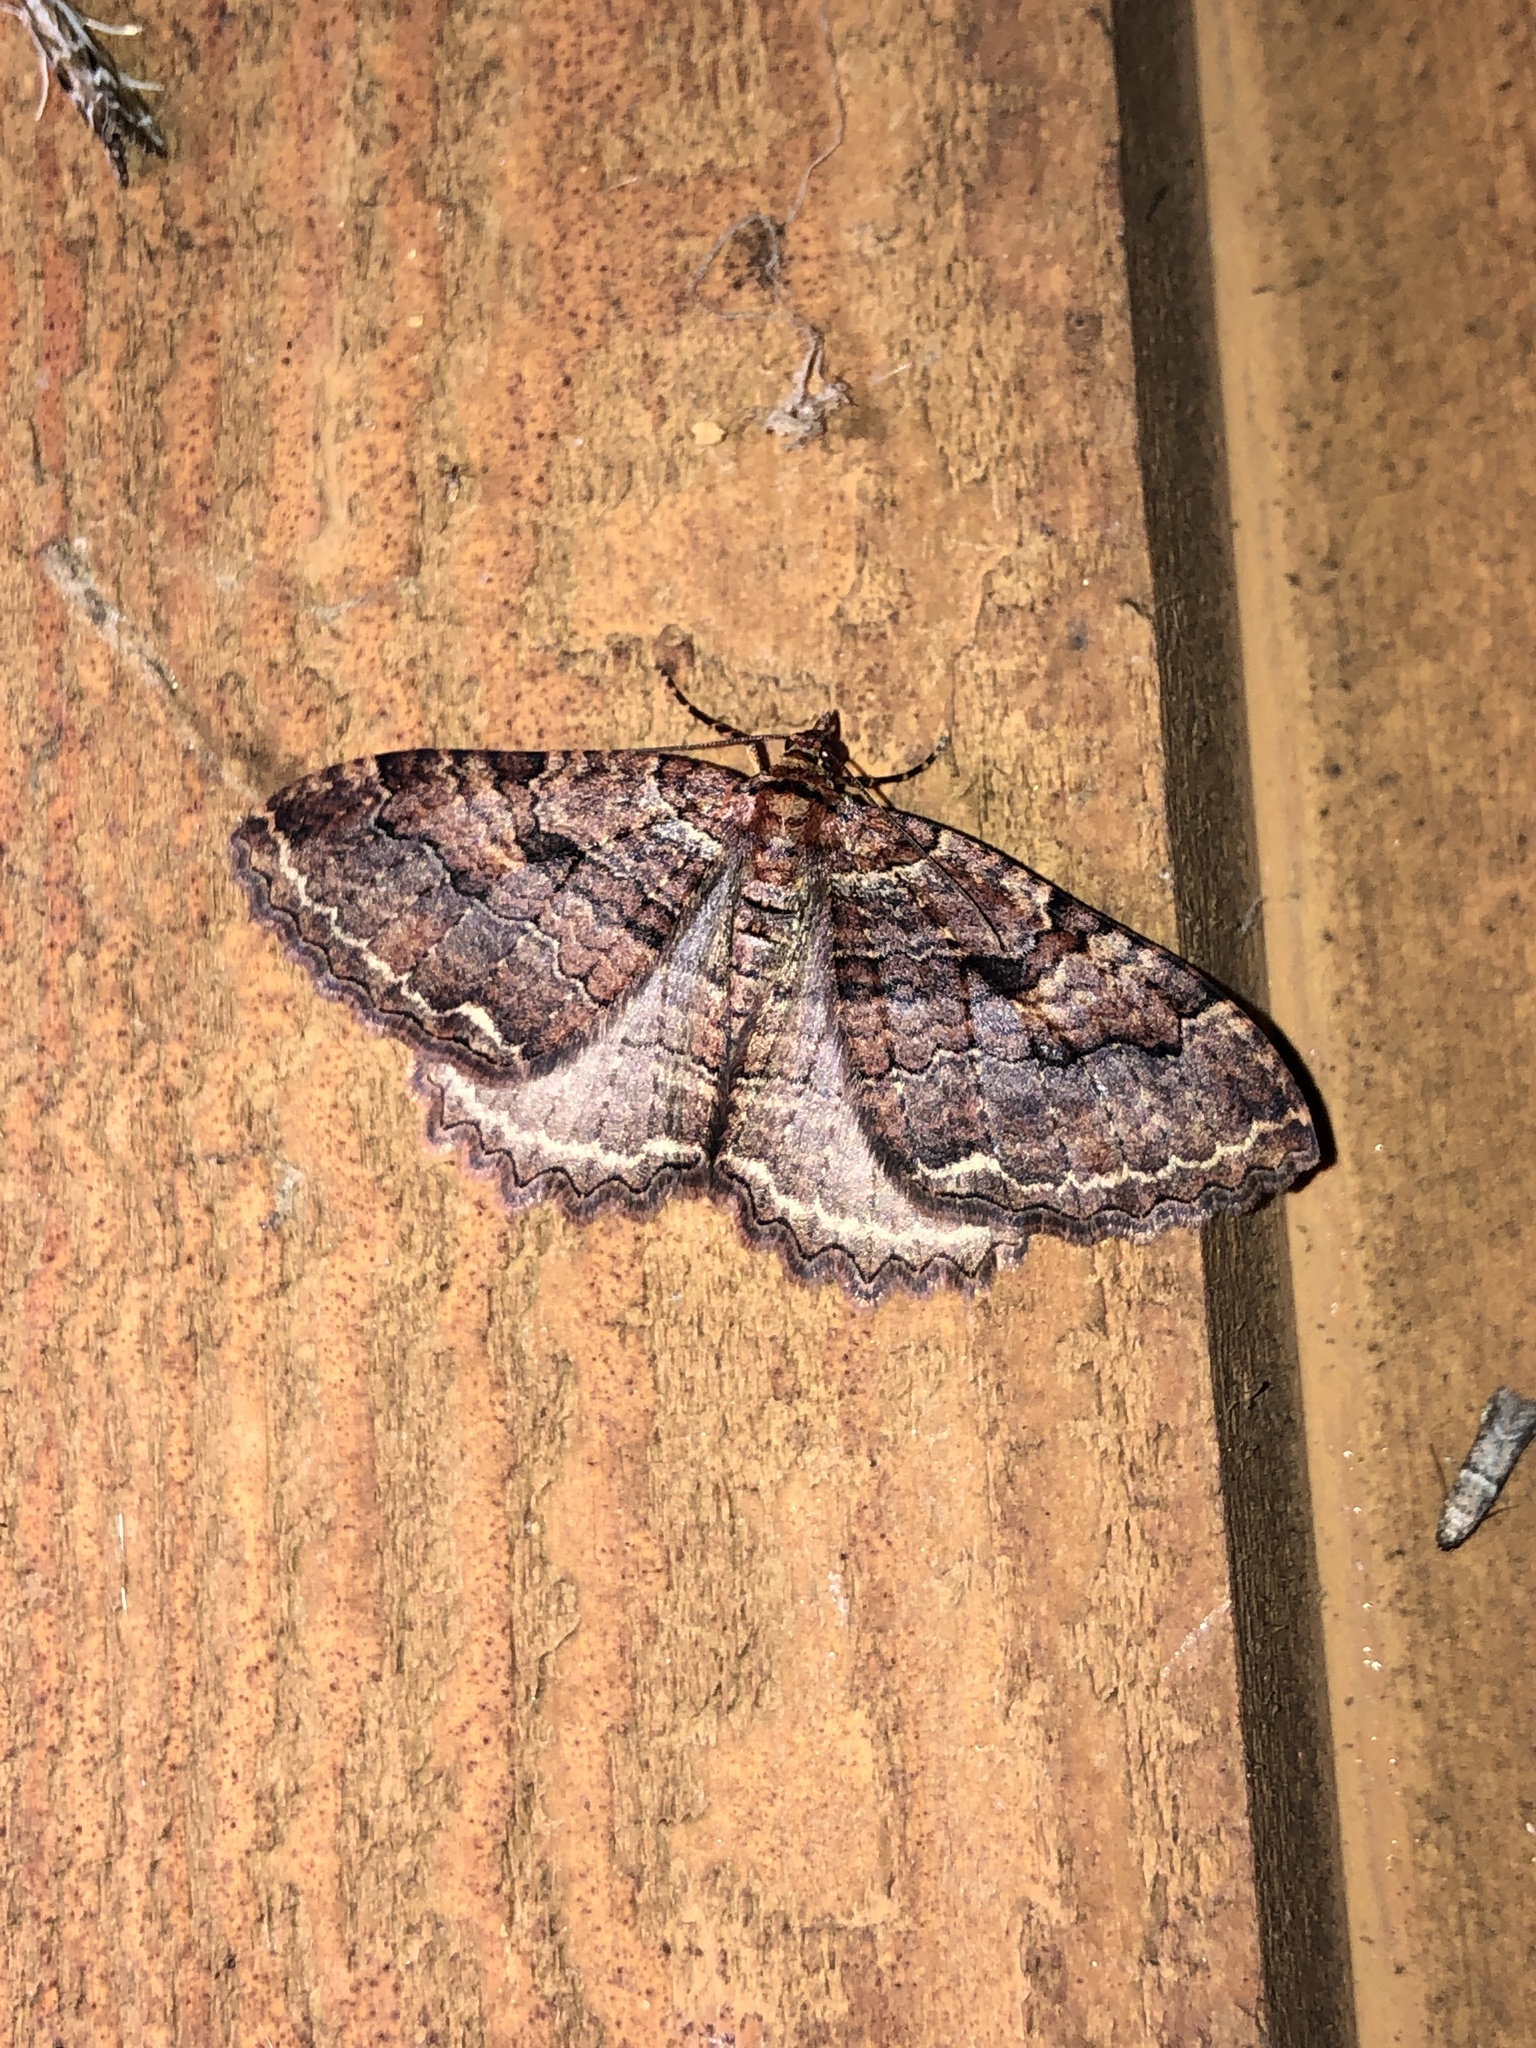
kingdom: Animalia
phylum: Arthropoda
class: Insecta
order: Lepidoptera
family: Geometridae
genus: Triphosa
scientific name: Triphosa haesitata
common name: Tissue moth
